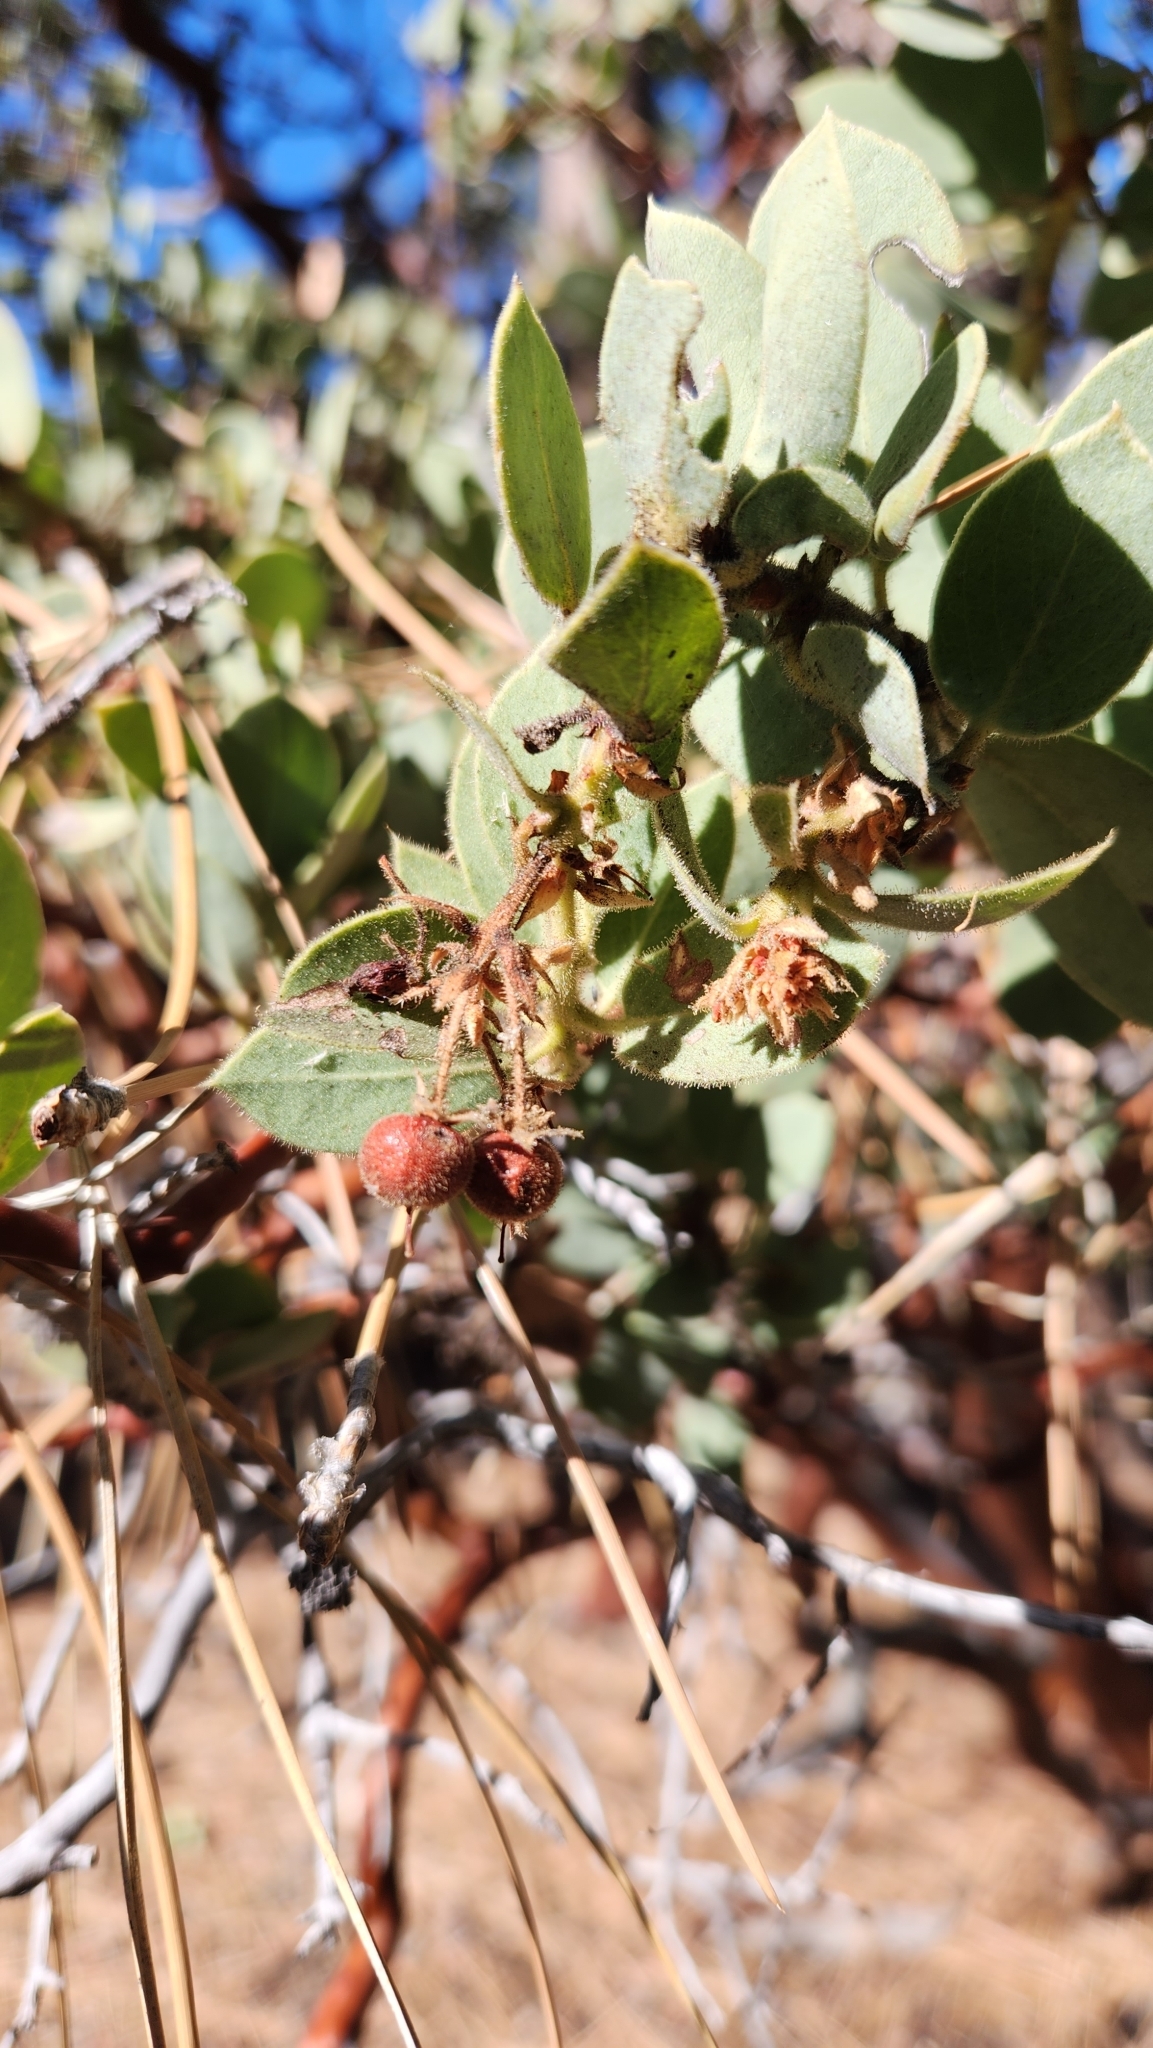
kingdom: Plantae
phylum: Tracheophyta
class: Magnoliopsida
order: Ericales
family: Ericaceae
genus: Arctostaphylos
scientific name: Arctostaphylos pringlei
